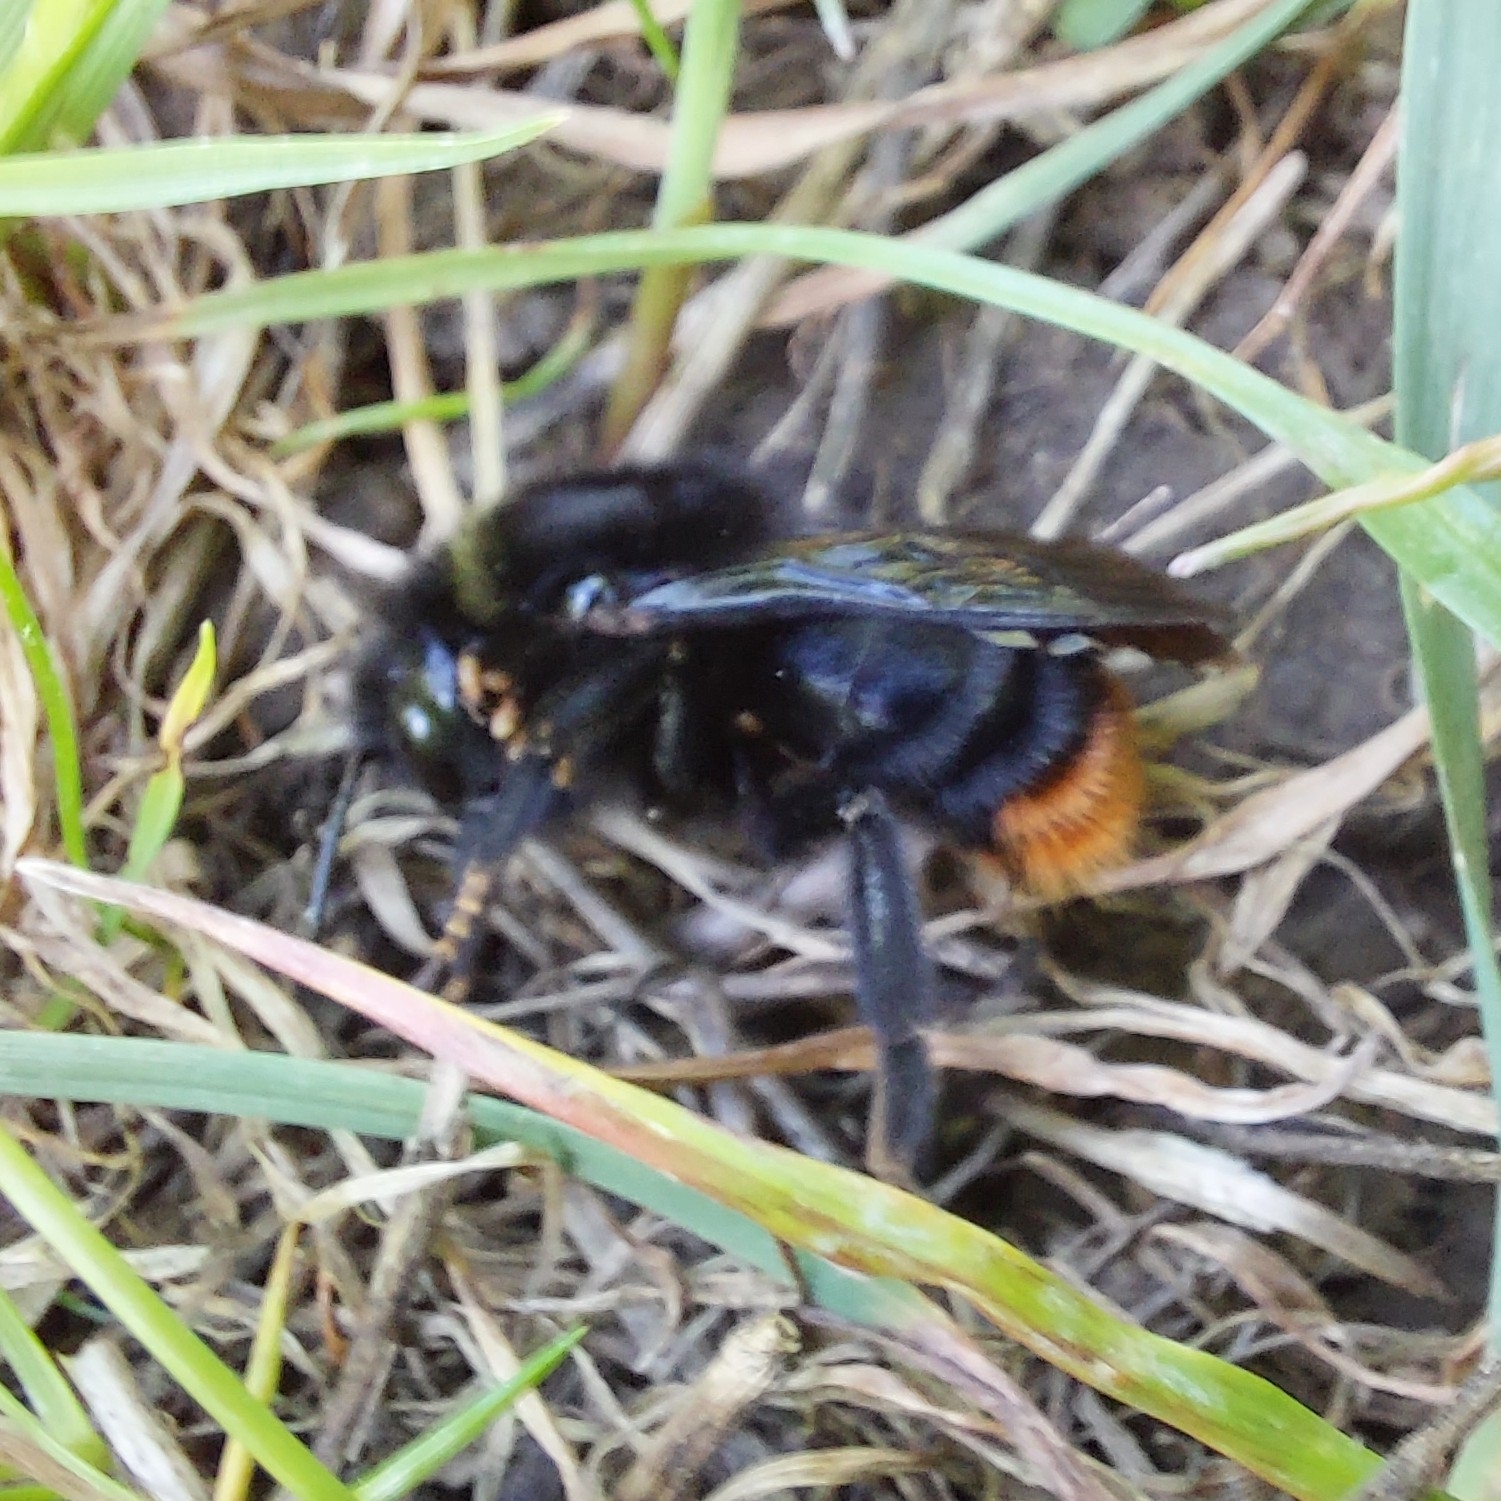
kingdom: Animalia
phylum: Arthropoda
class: Insecta
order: Hymenoptera
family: Apidae
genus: Bombus
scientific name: Bombus rupestris
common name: Hill cuckoo-bee
